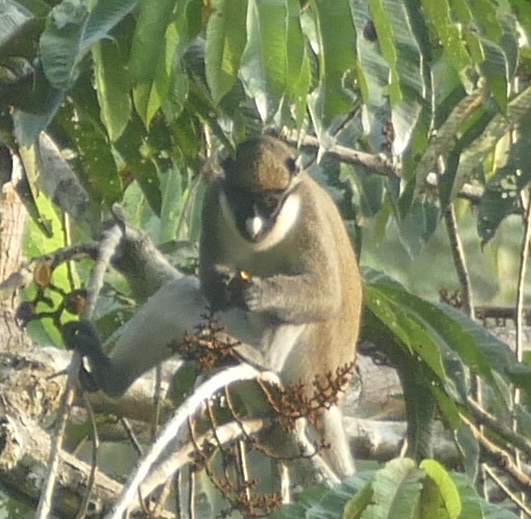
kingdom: Animalia
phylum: Chordata
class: Mammalia
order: Primates
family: Cercopithecidae
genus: Cercopithecus
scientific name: Cercopithecus petaurista
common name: Lesser spot-nosed monkey
